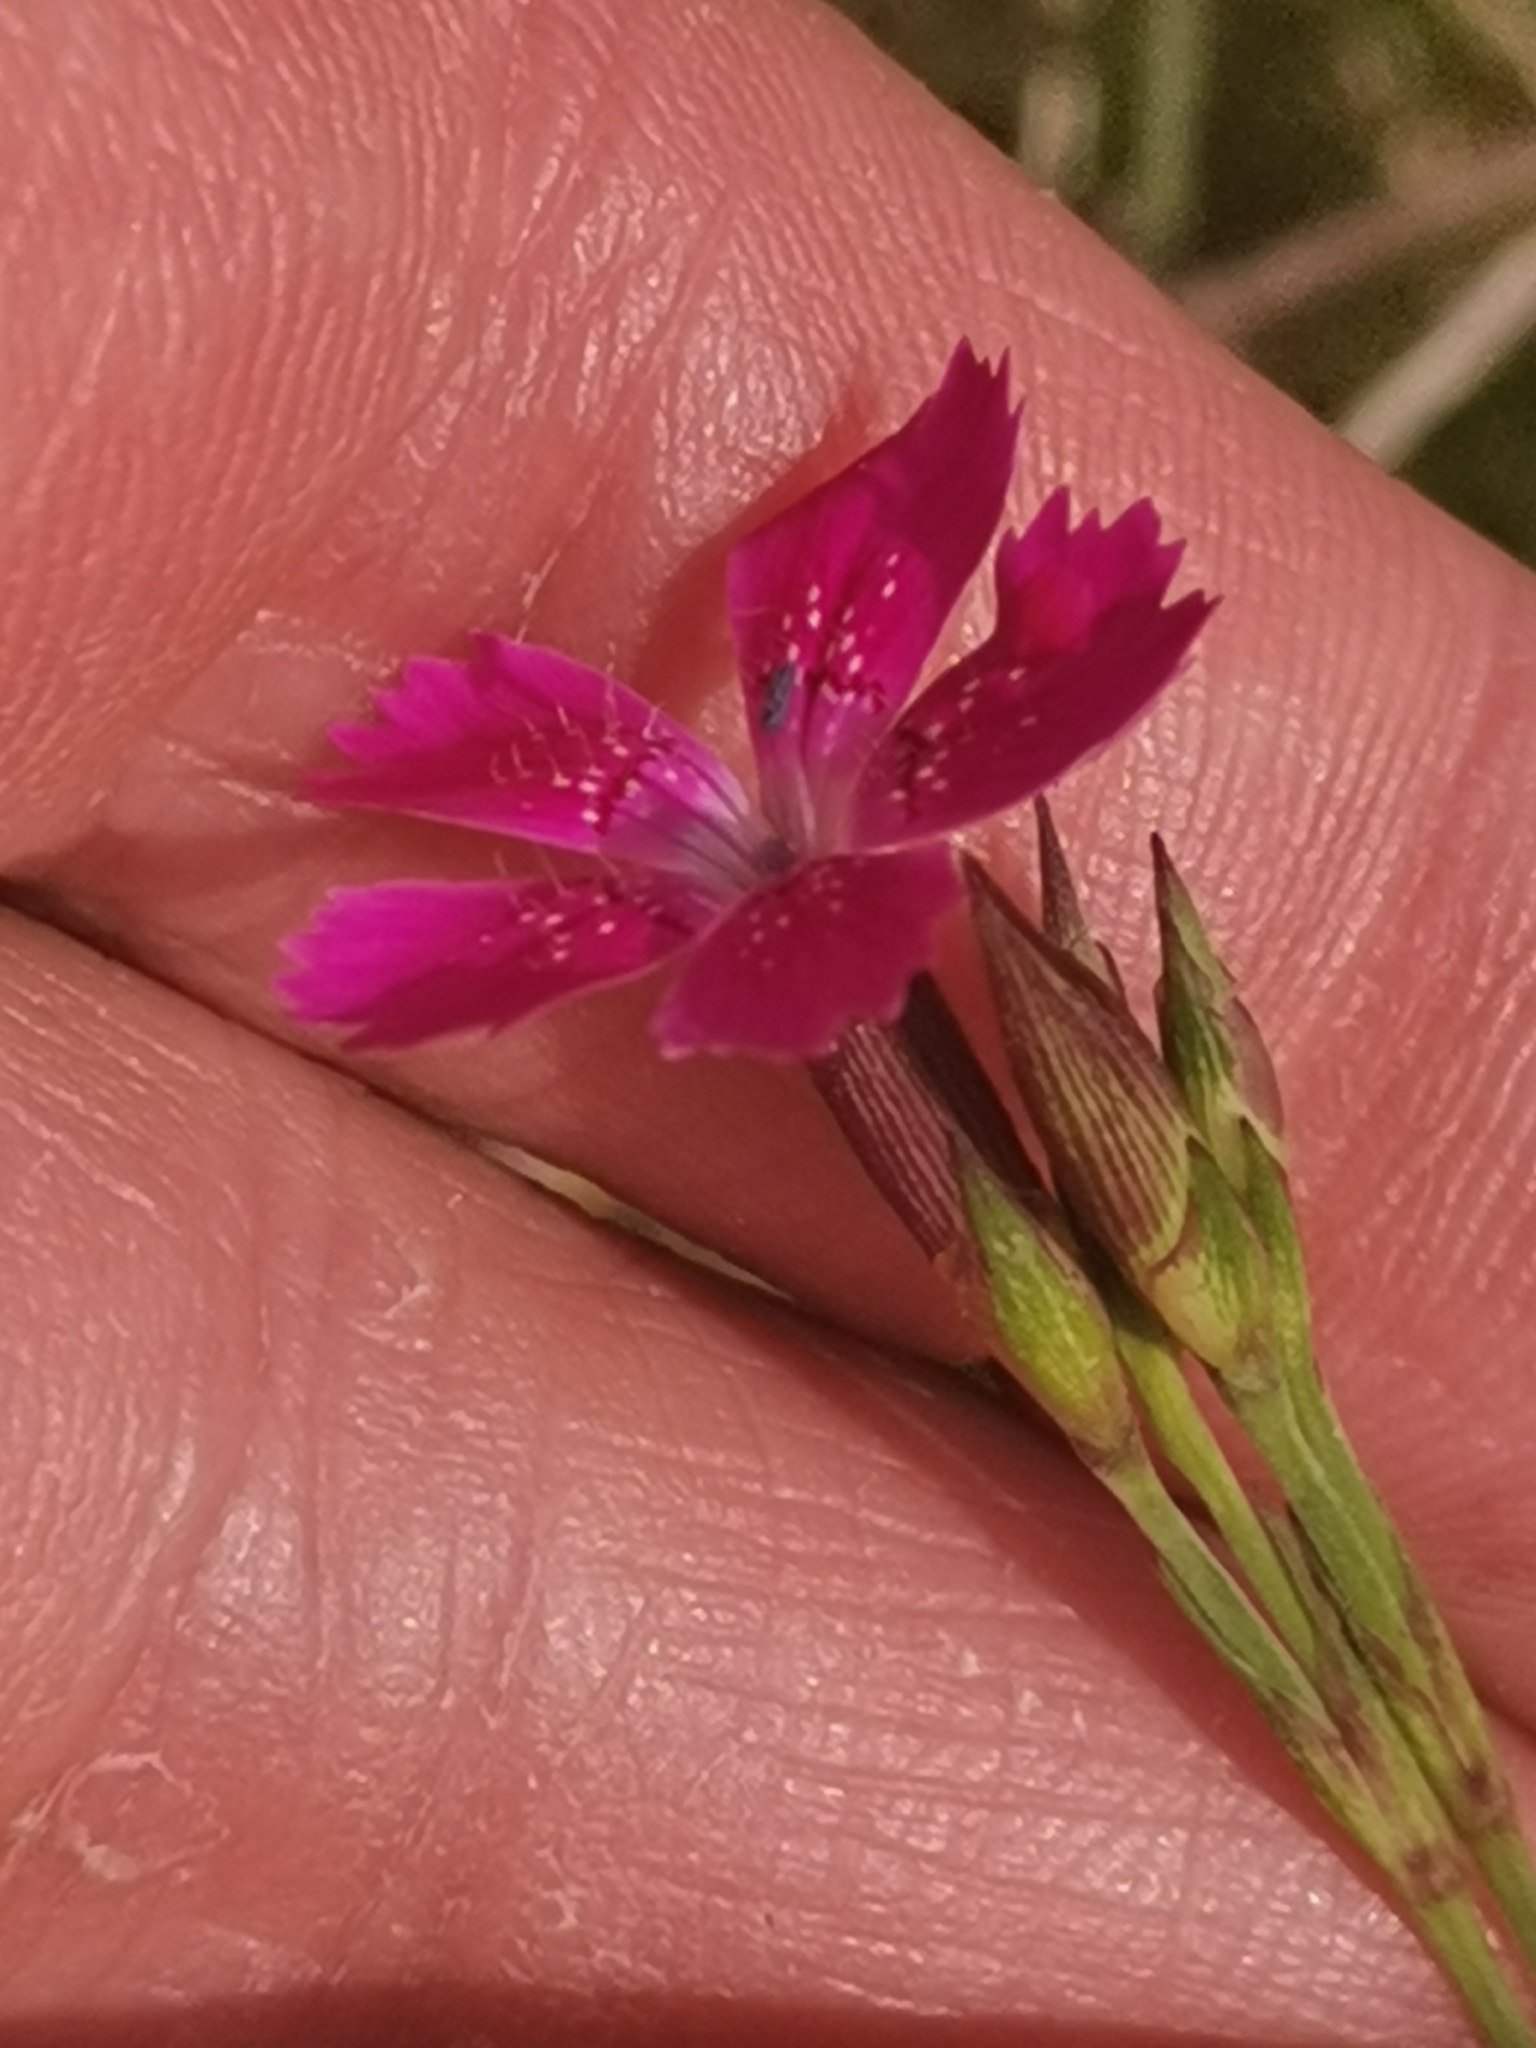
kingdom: Plantae
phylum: Tracheophyta
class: Magnoliopsida
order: Caryophyllales
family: Caryophyllaceae
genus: Dianthus
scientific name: Dianthus deltoides
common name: Maiden pink
